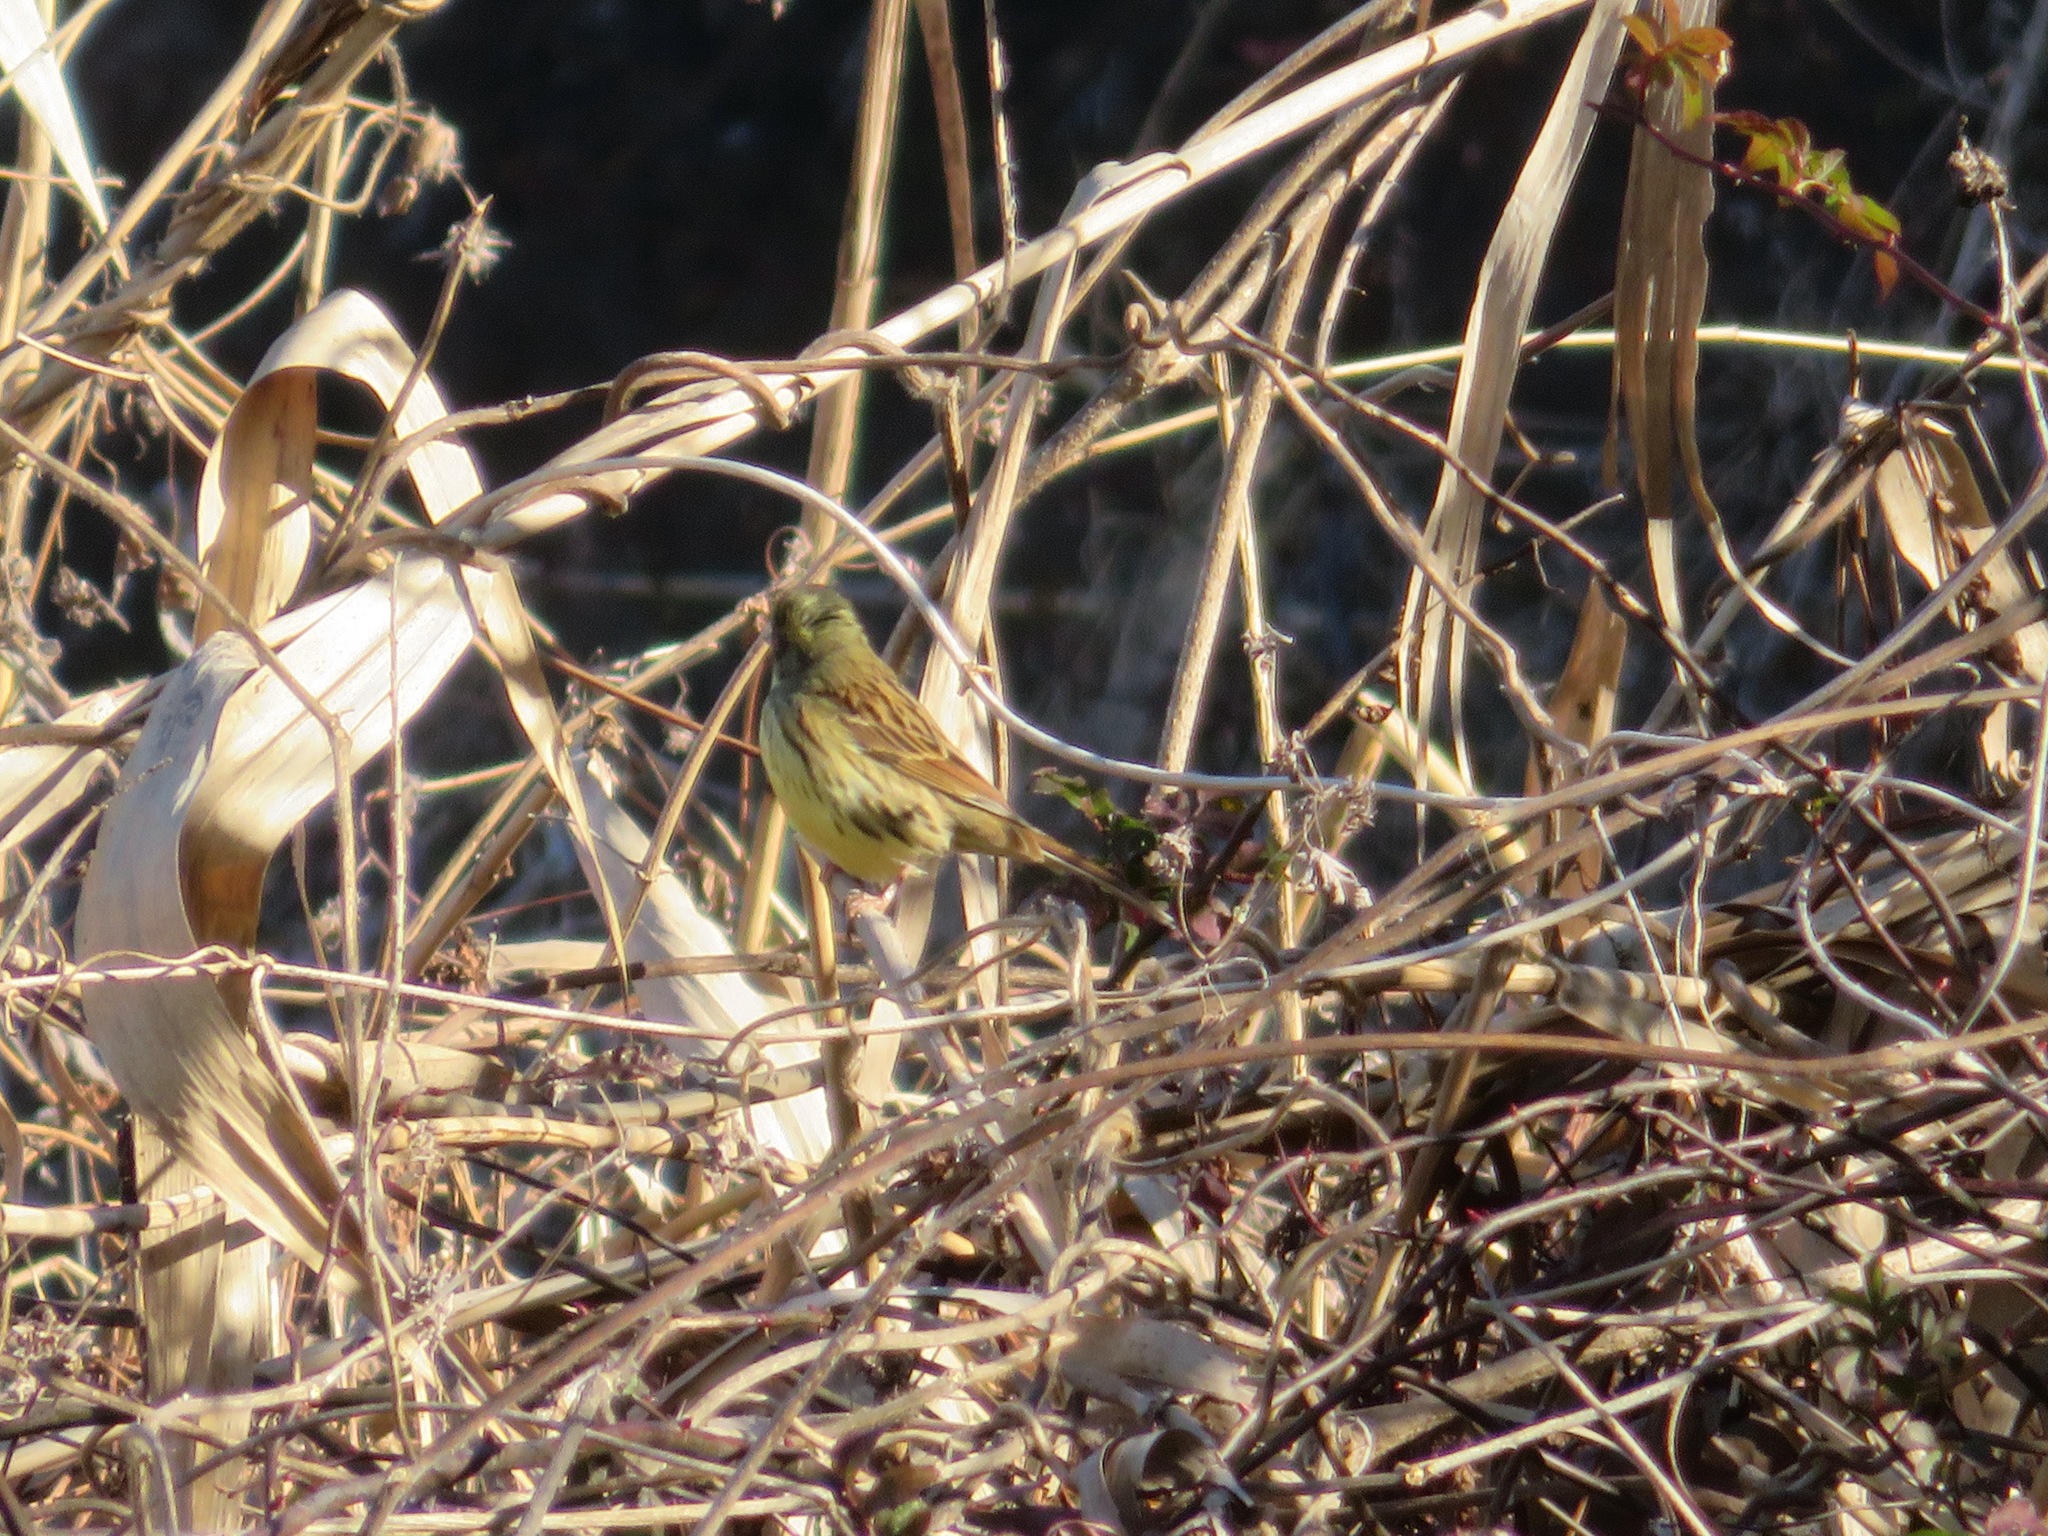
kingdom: Animalia
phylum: Chordata
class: Aves
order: Passeriformes
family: Emberizidae
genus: Emberiza
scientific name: Emberiza personata
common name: Masked bunting
